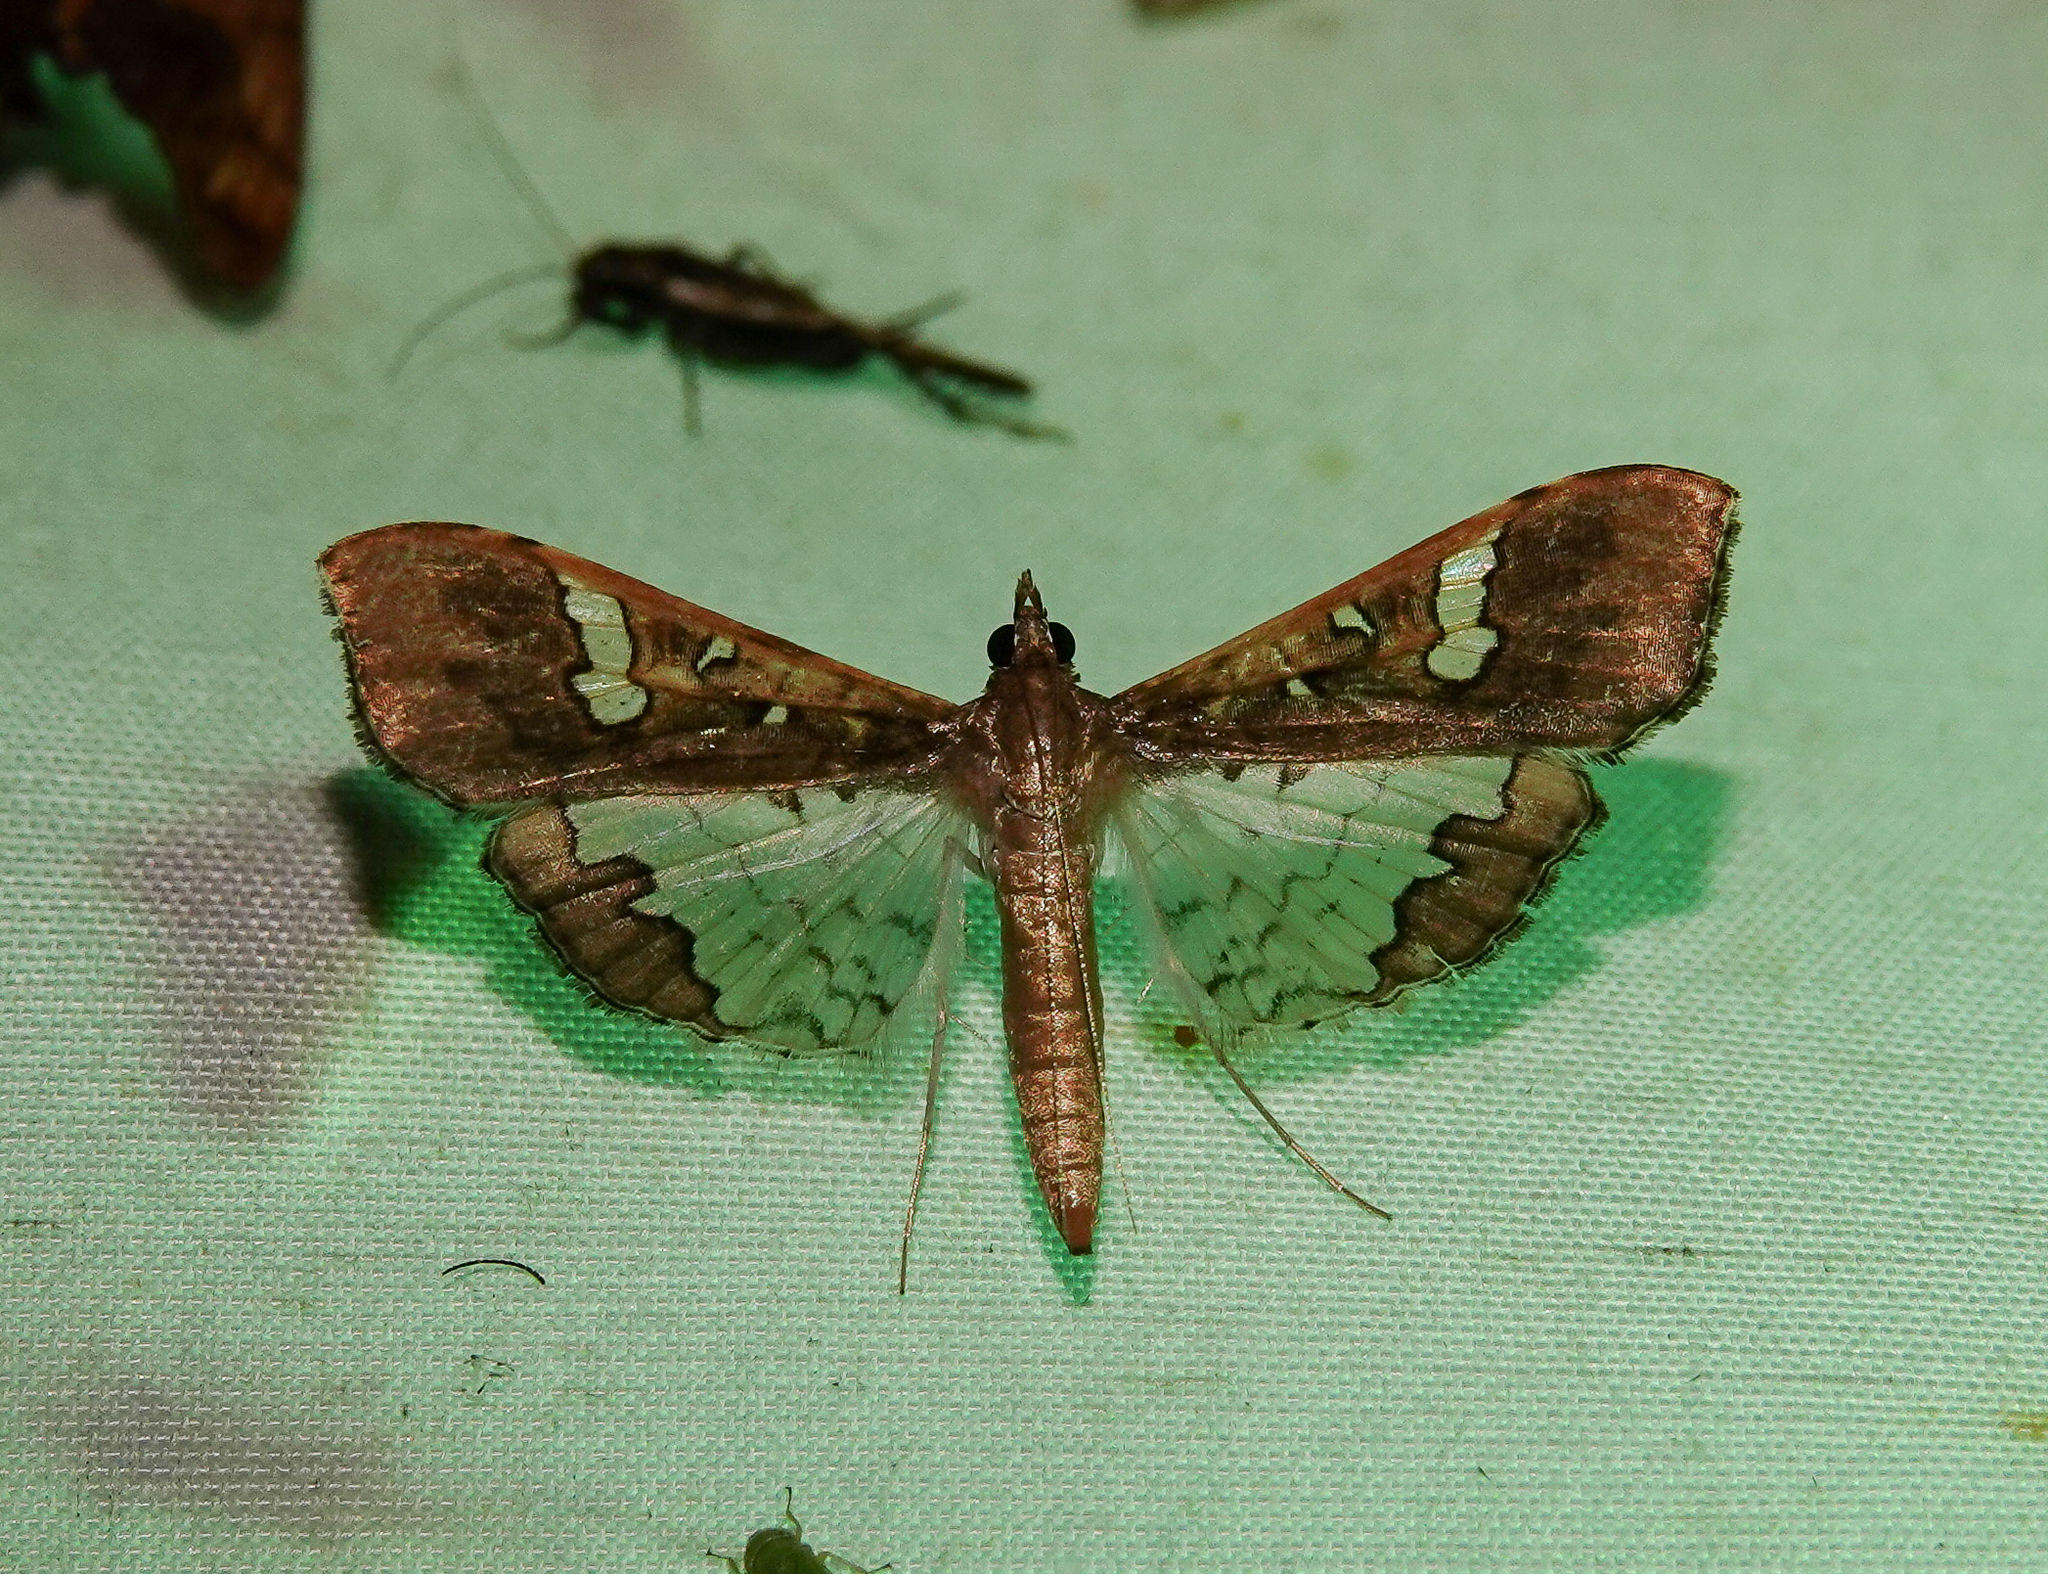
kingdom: Animalia
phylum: Arthropoda
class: Insecta
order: Lepidoptera
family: Crambidae
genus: Maruca
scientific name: Maruca vitrata
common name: Maruca pod borer
